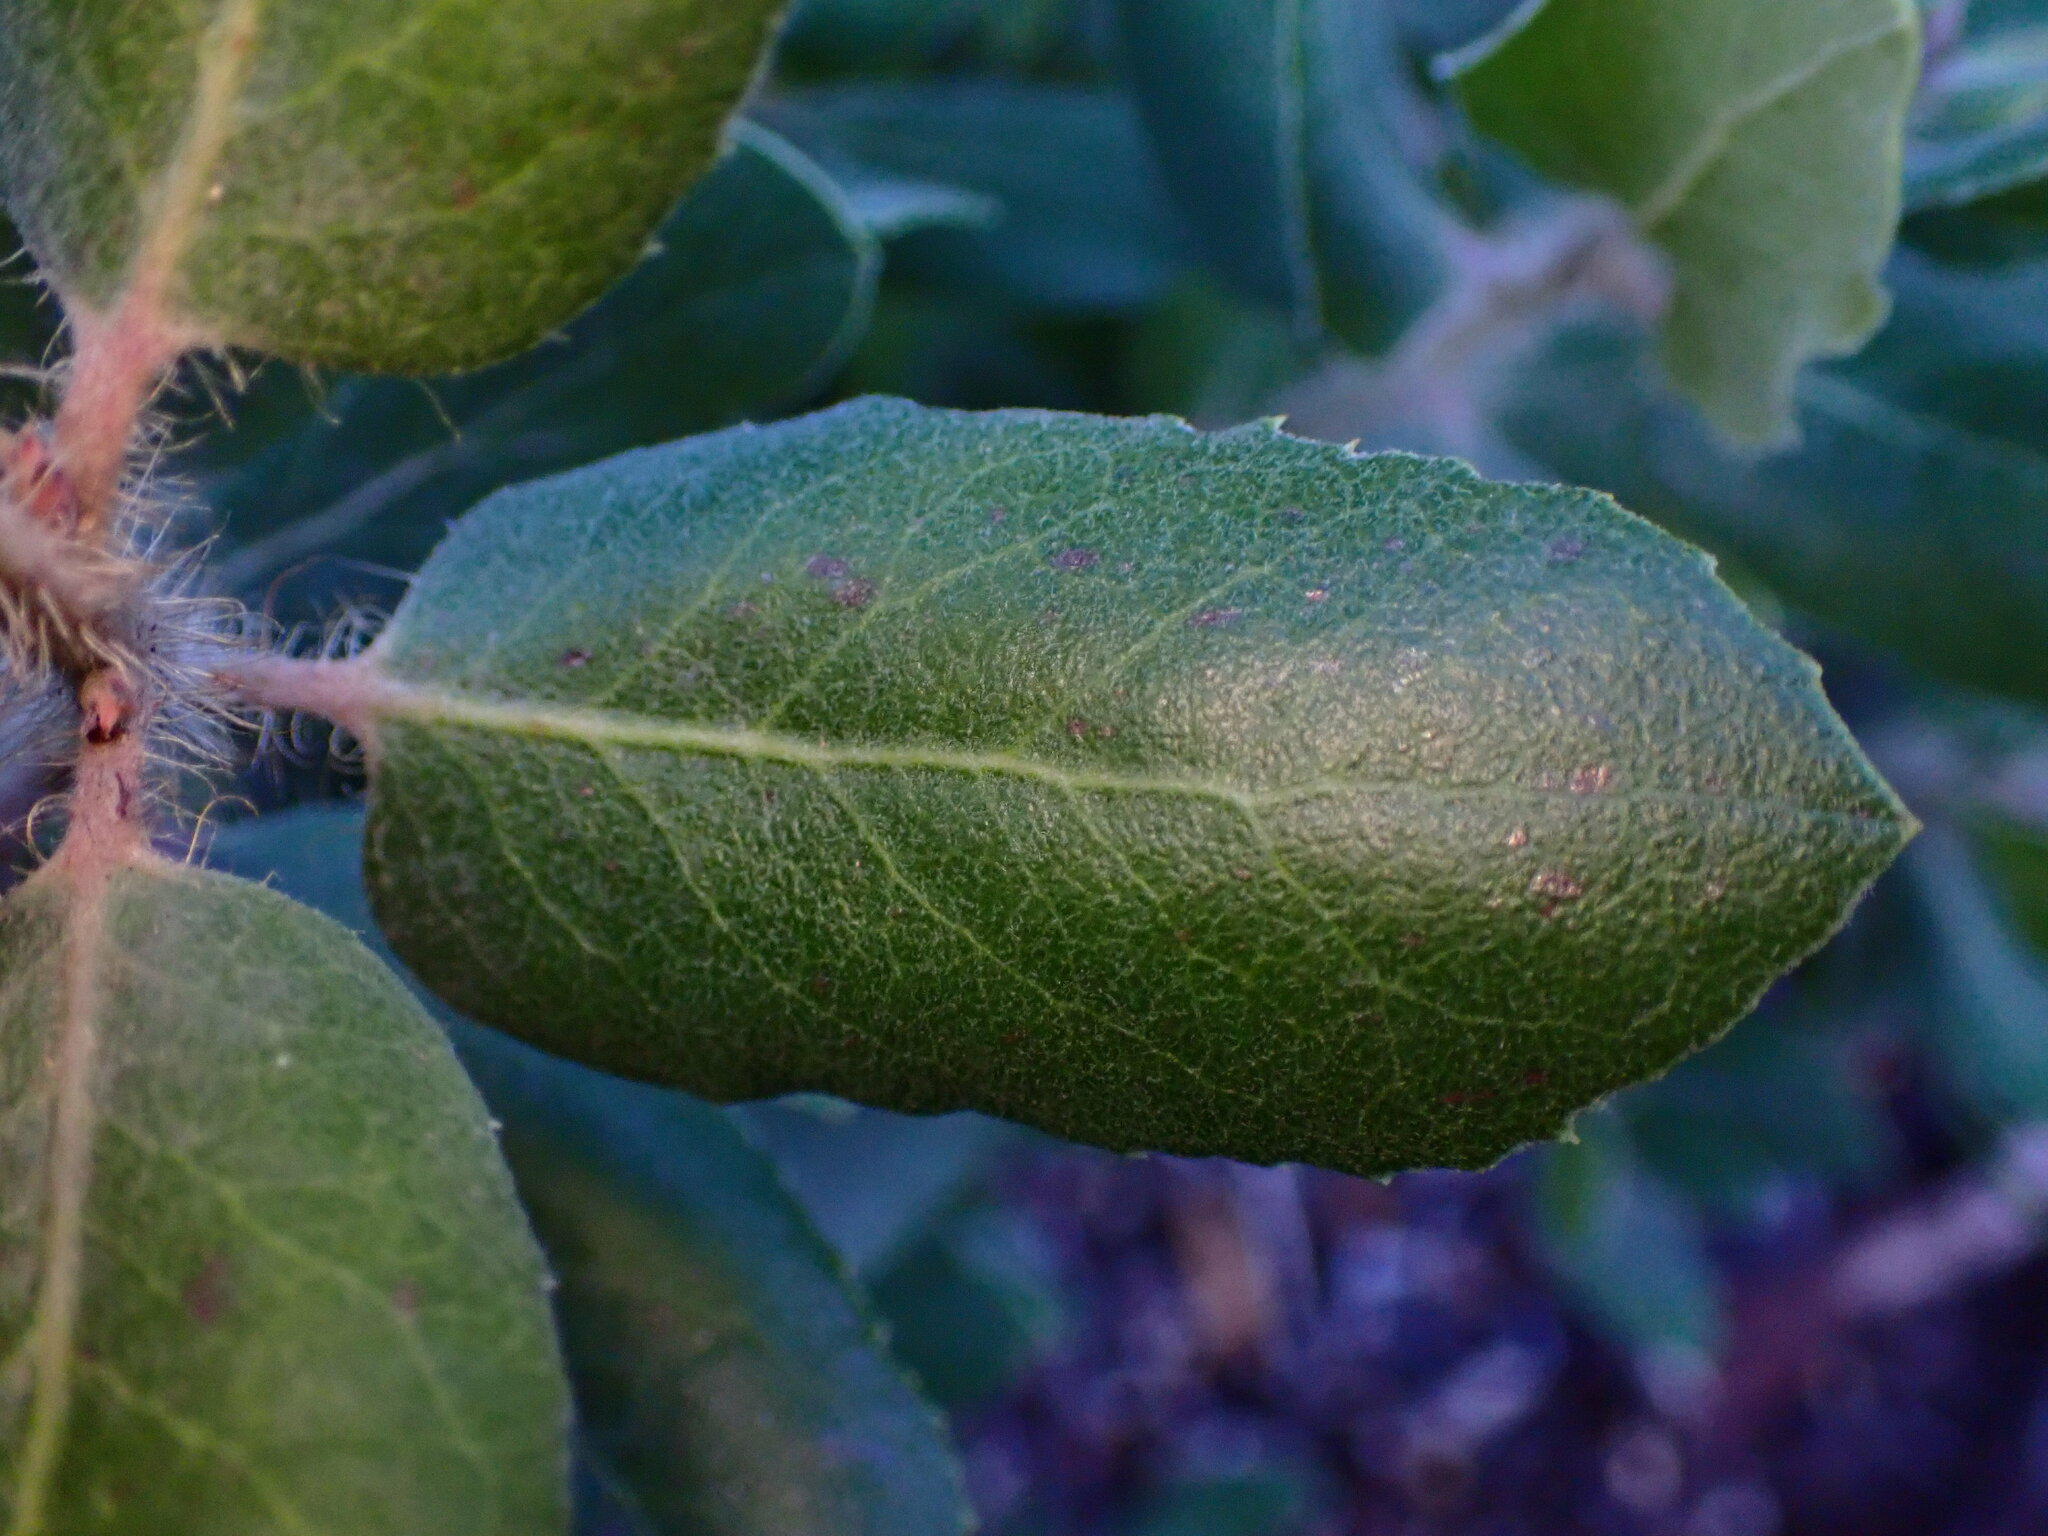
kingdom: Plantae
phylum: Tracheophyta
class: Magnoliopsida
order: Ericales
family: Ericaceae
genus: Arctostaphylos
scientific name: Arctostaphylos crustacea
